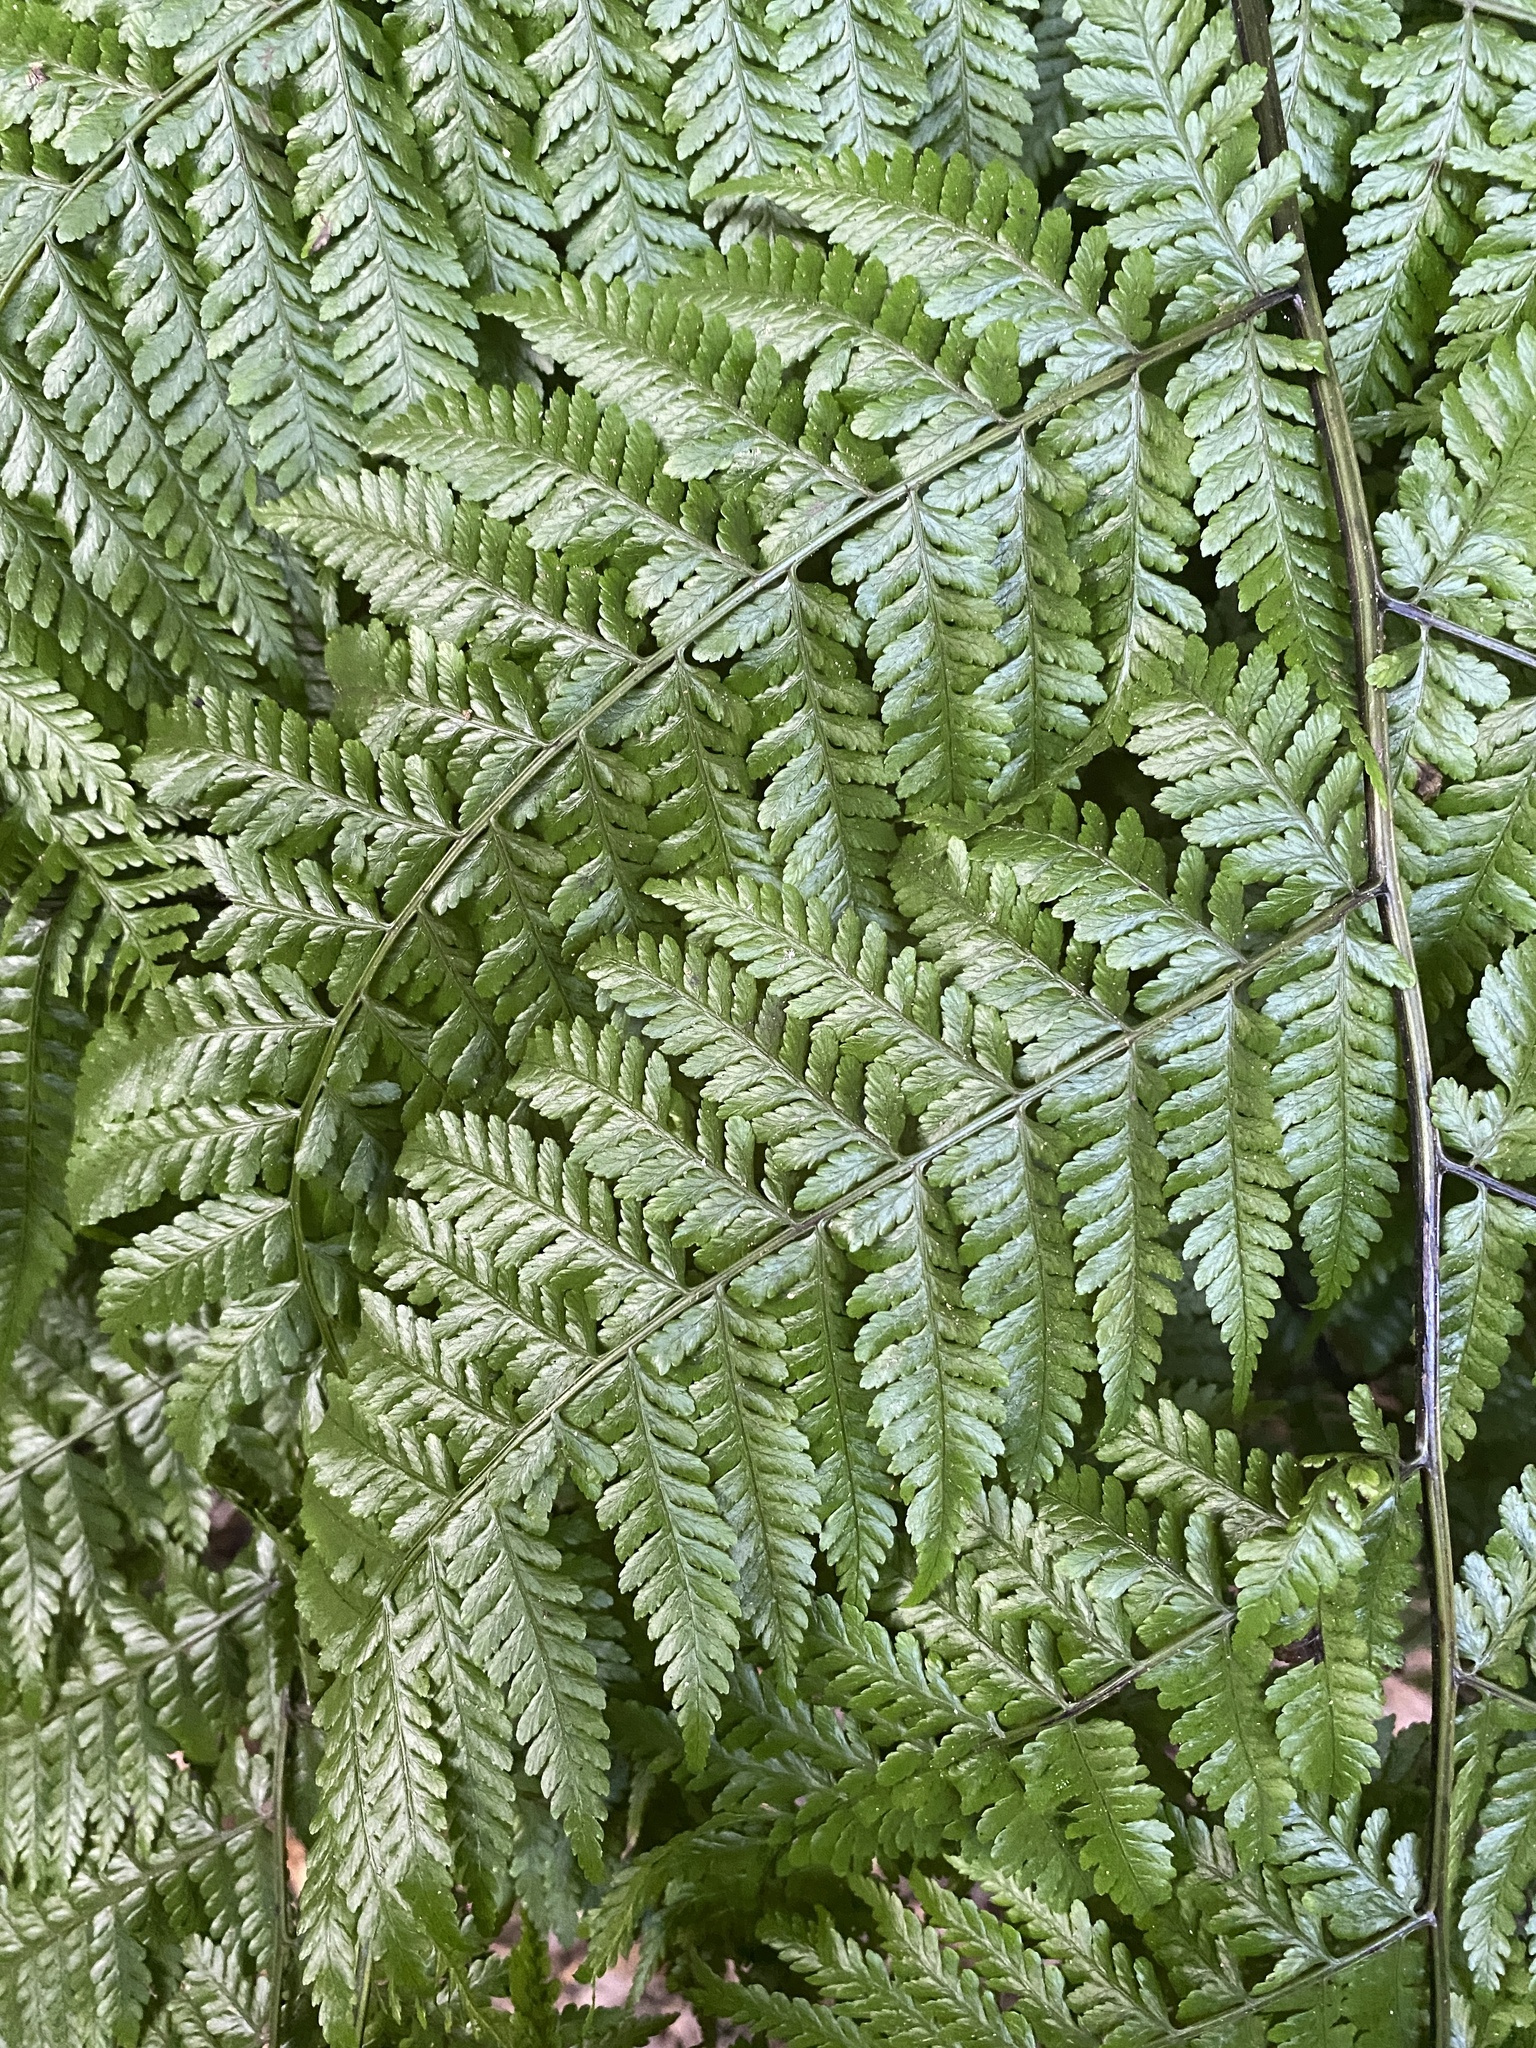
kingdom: Plantae
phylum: Tracheophyta
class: Polypodiopsida
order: Polypodiales
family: Athyriaceae
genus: Diplazium
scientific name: Diplazium caudatum
